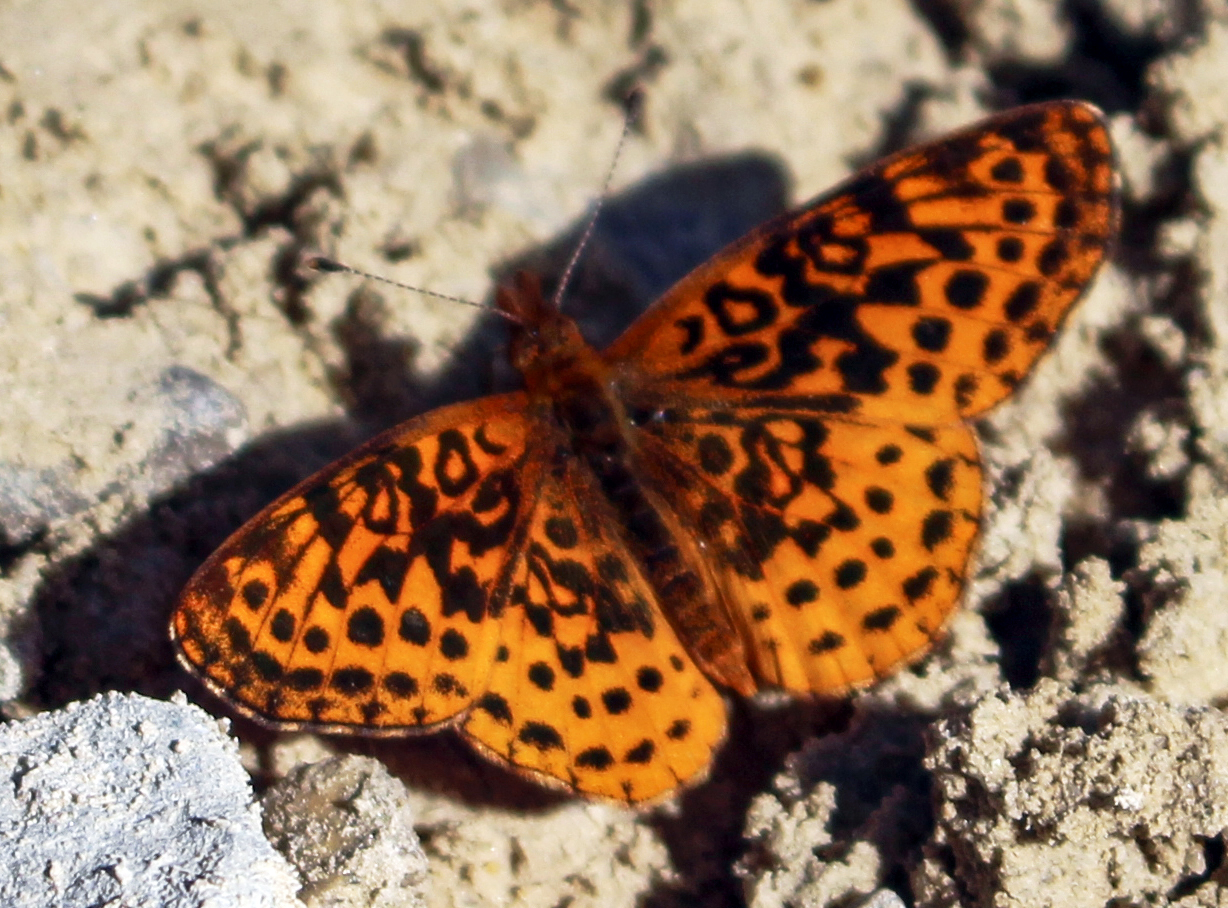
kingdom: Animalia
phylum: Arthropoda
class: Insecta
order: Lepidoptera
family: Nymphalidae
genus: Clossiana
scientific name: Clossiana toddi
